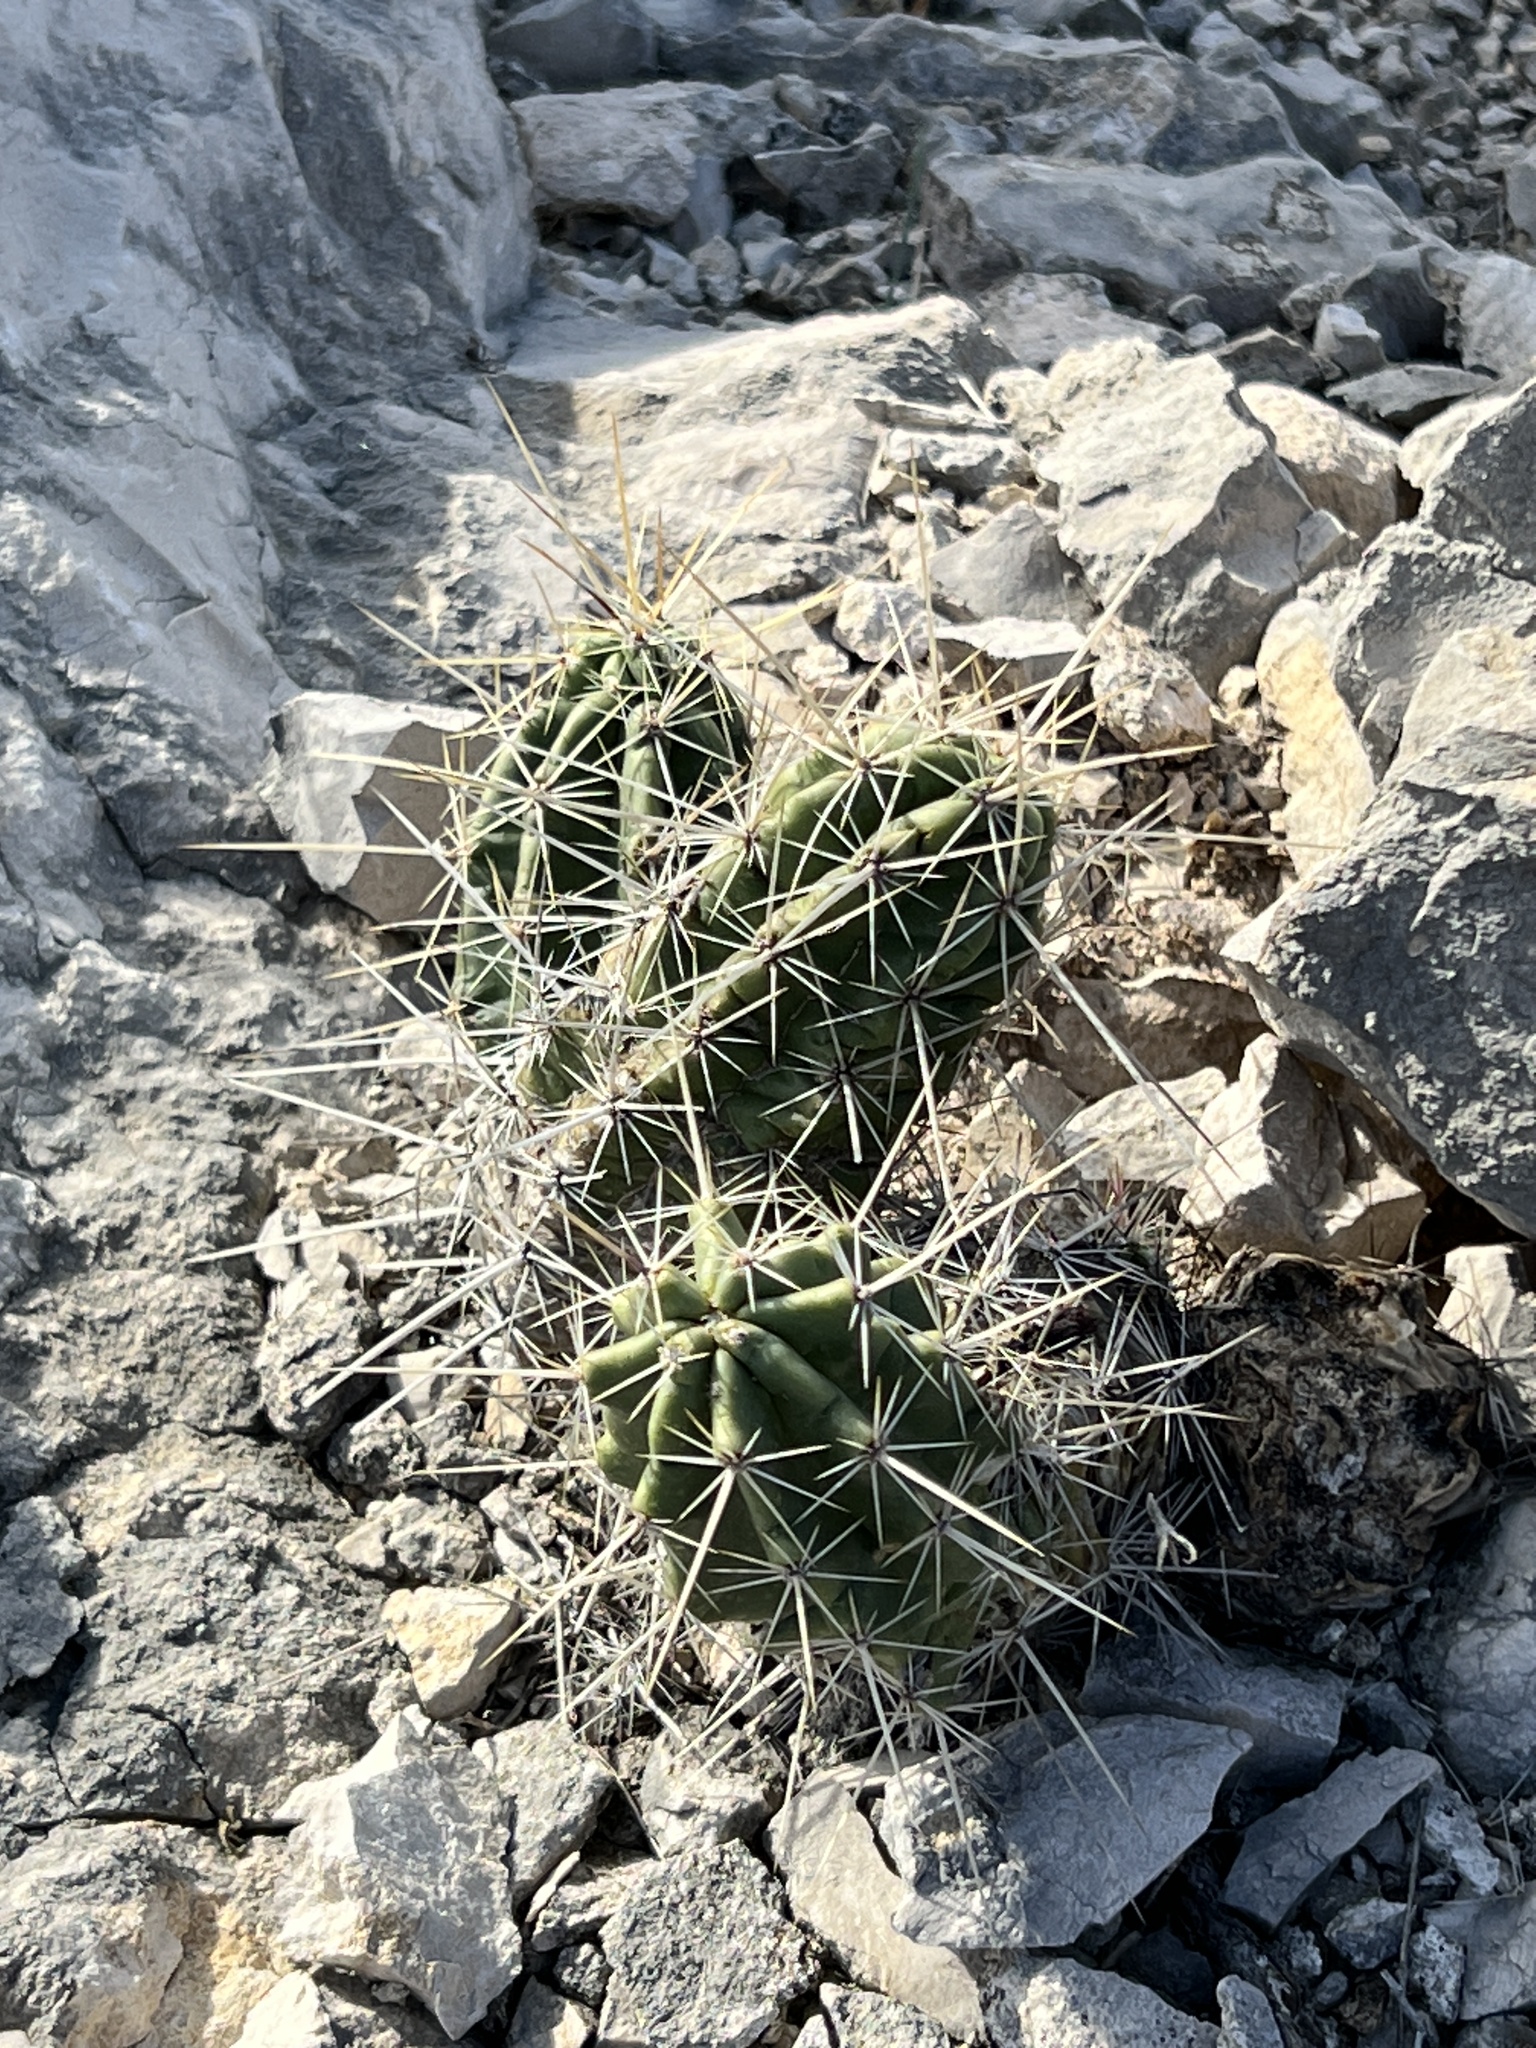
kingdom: Plantae
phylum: Tracheophyta
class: Magnoliopsida
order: Caryophyllales
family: Cactaceae
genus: Echinocereus
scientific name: Echinocereus enneacanthus
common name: Pitaya
